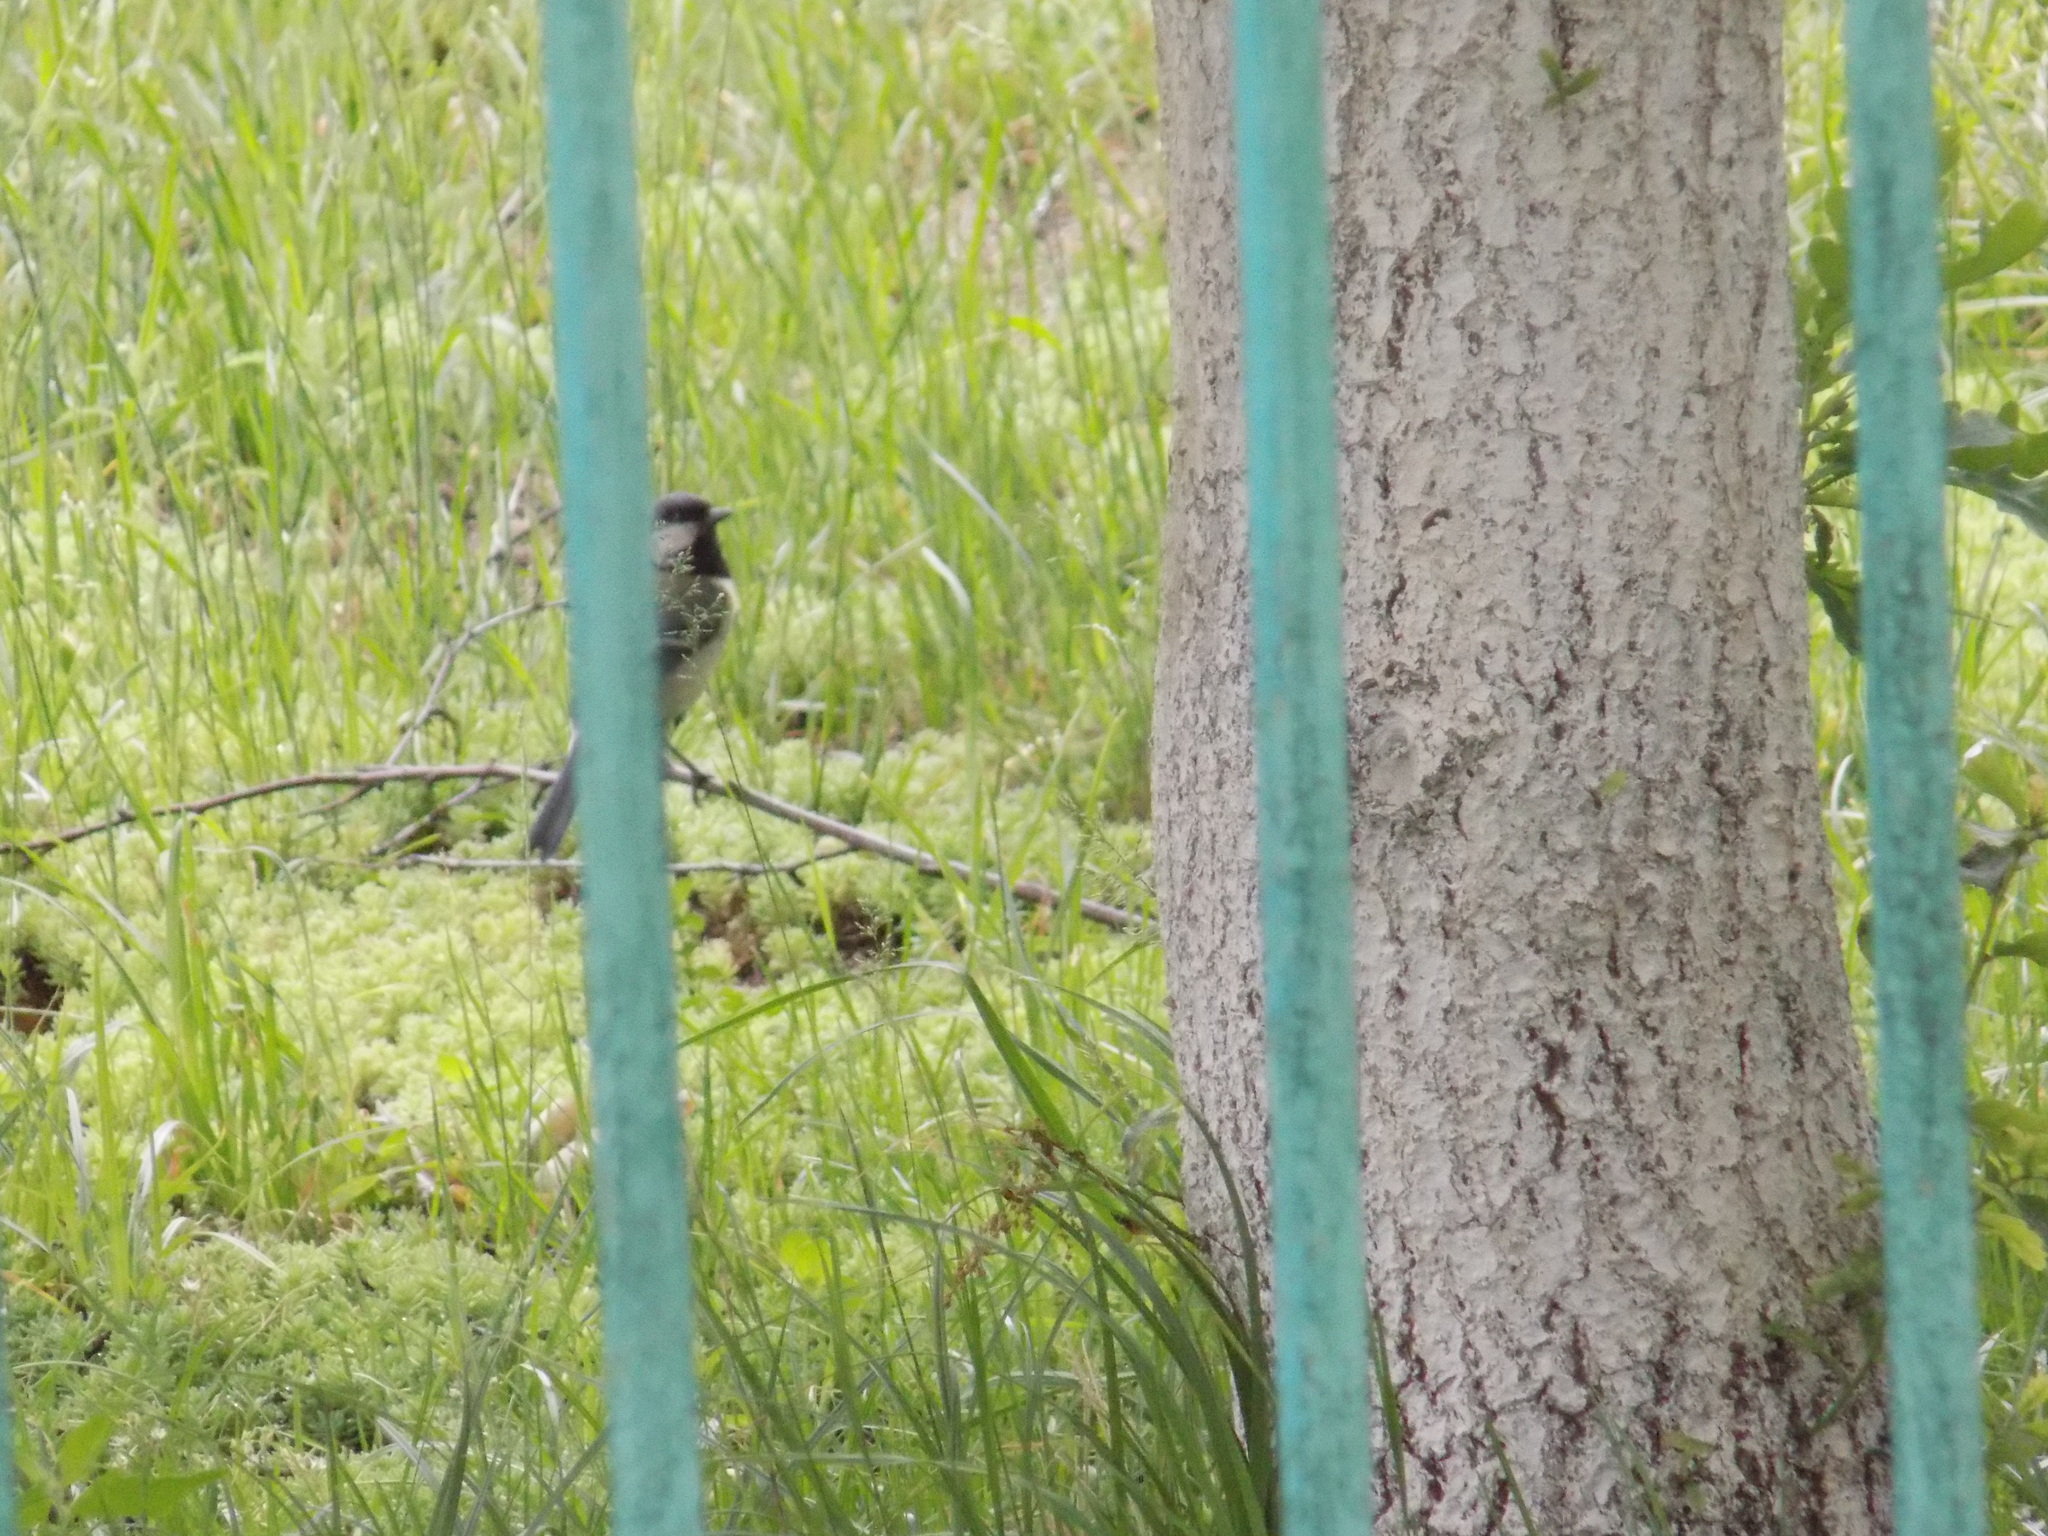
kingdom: Animalia
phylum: Chordata
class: Aves
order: Passeriformes
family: Paridae
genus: Parus
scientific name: Parus major
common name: Great tit
